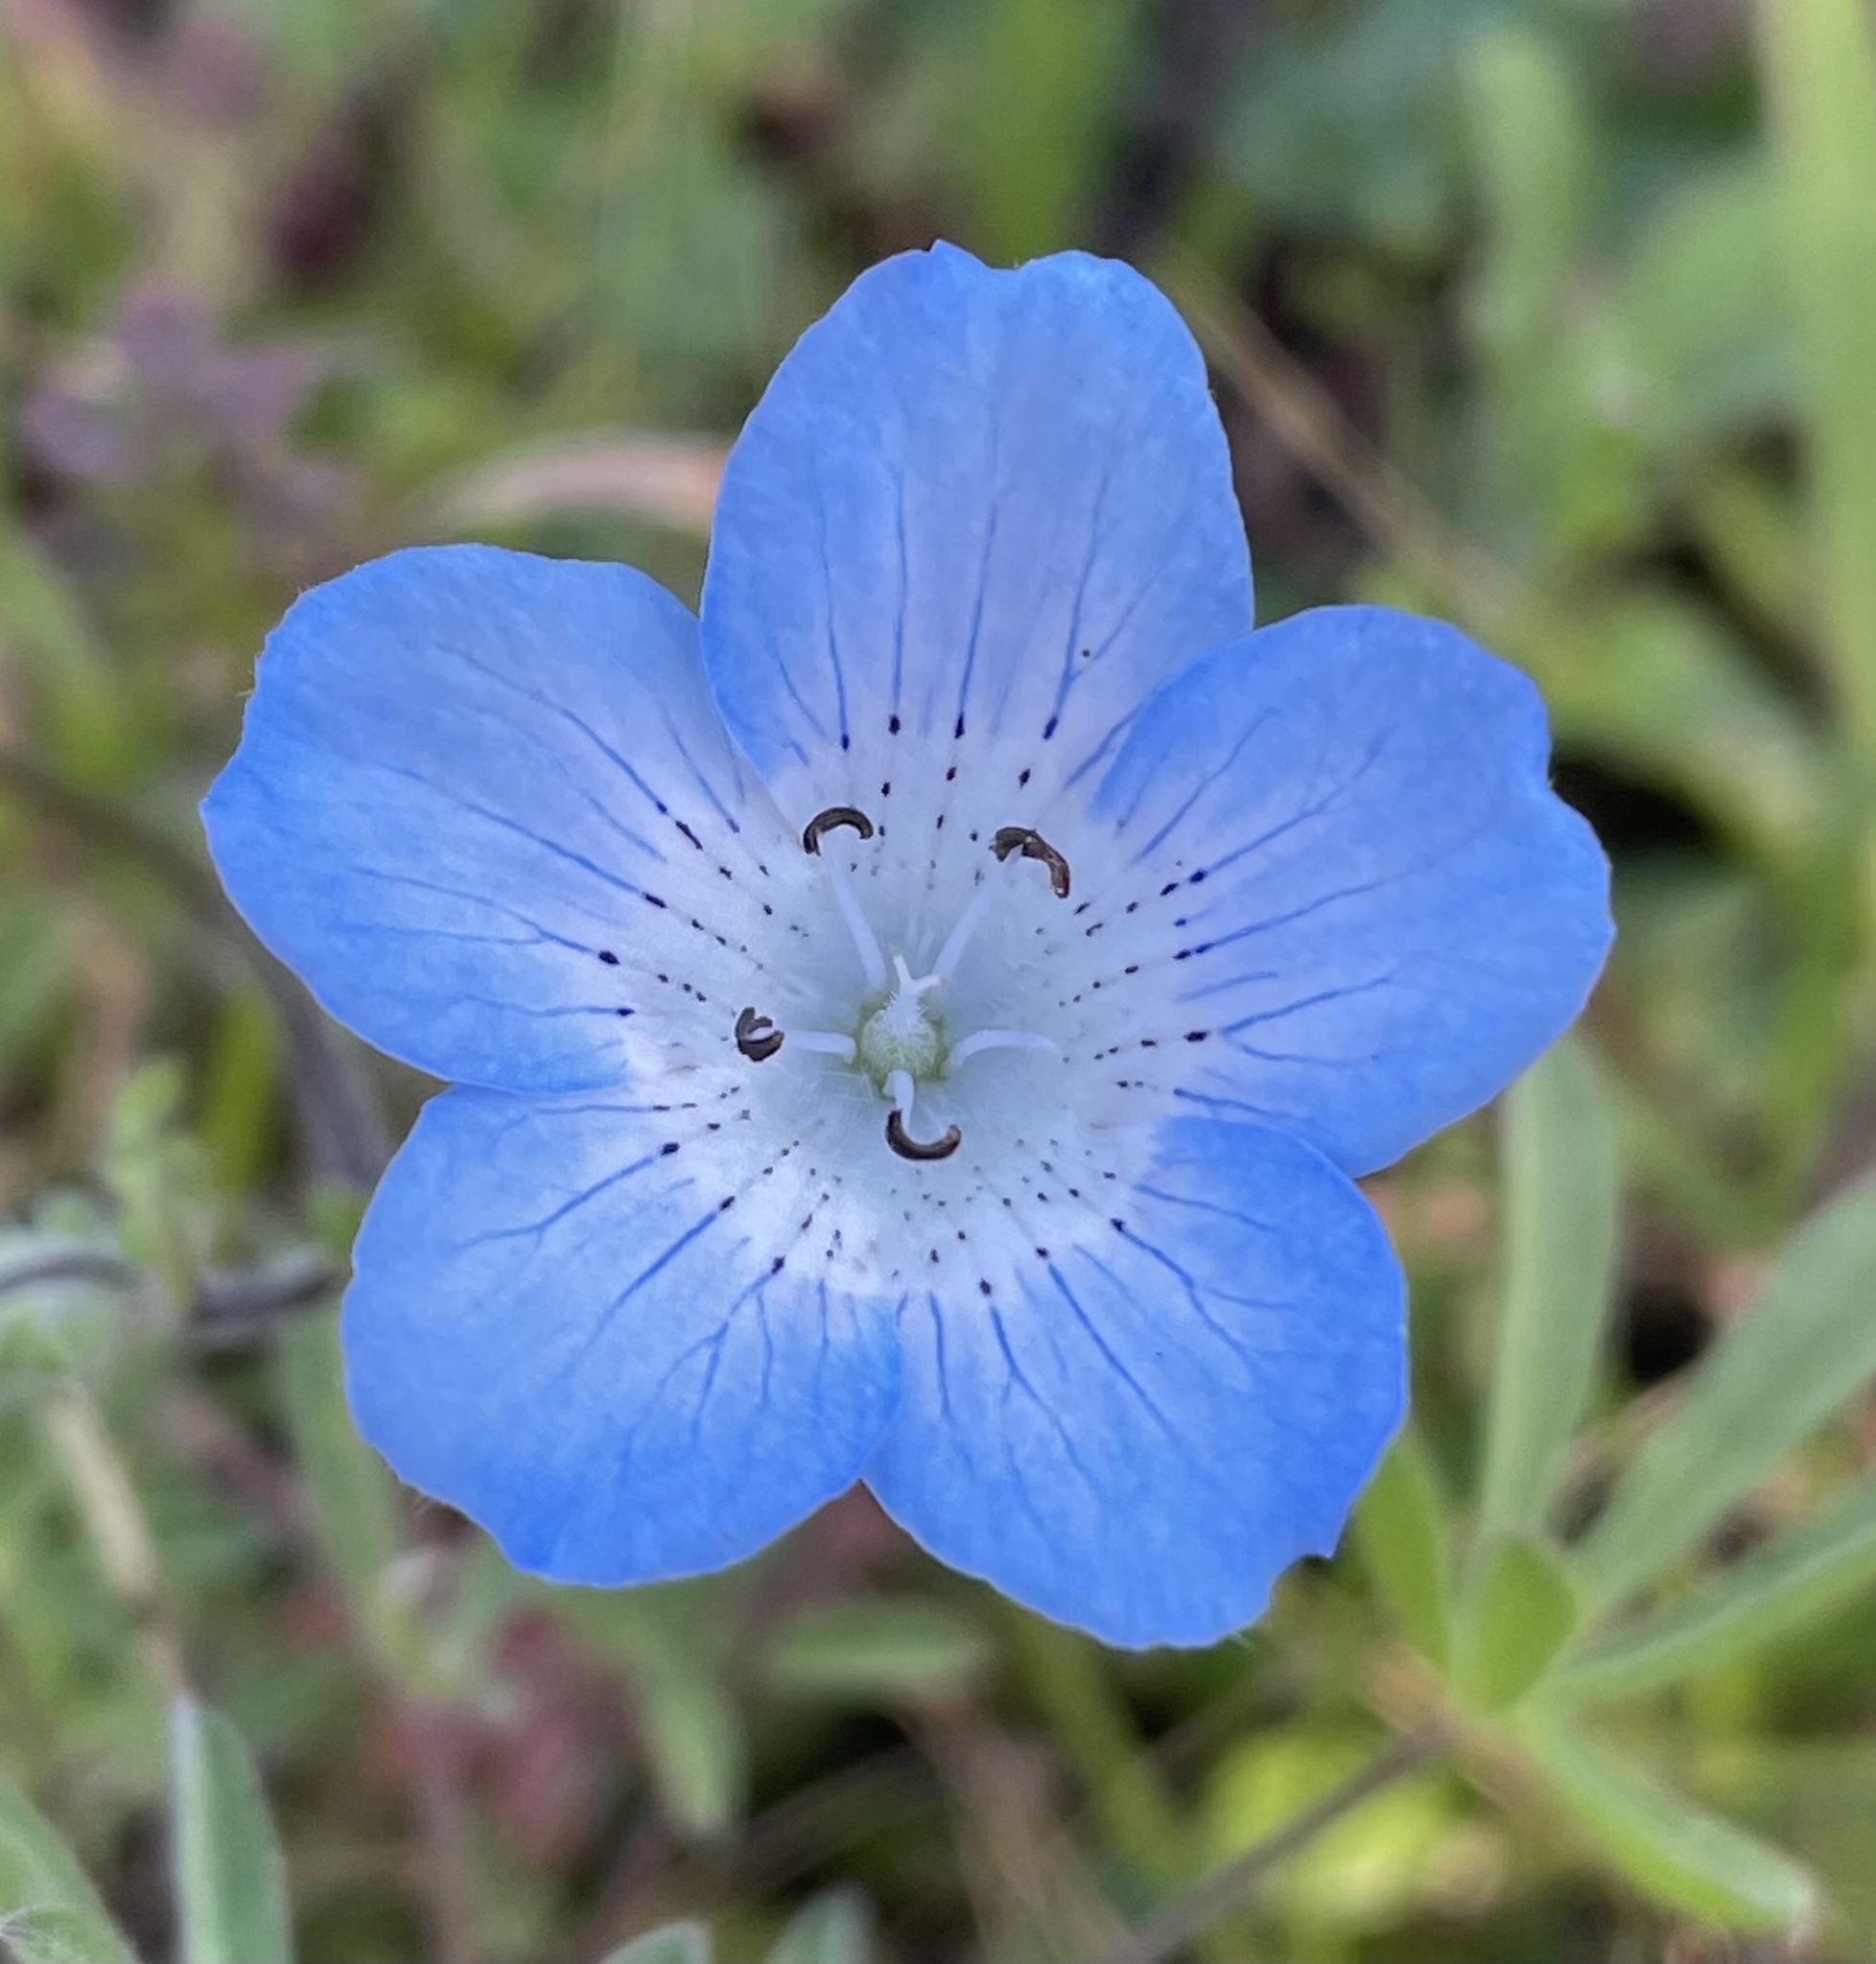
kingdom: Plantae
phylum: Tracheophyta
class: Magnoliopsida
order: Boraginales
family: Hydrophyllaceae
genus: Nemophila
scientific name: Nemophila menziesii
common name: Baby's-blue-eyes
